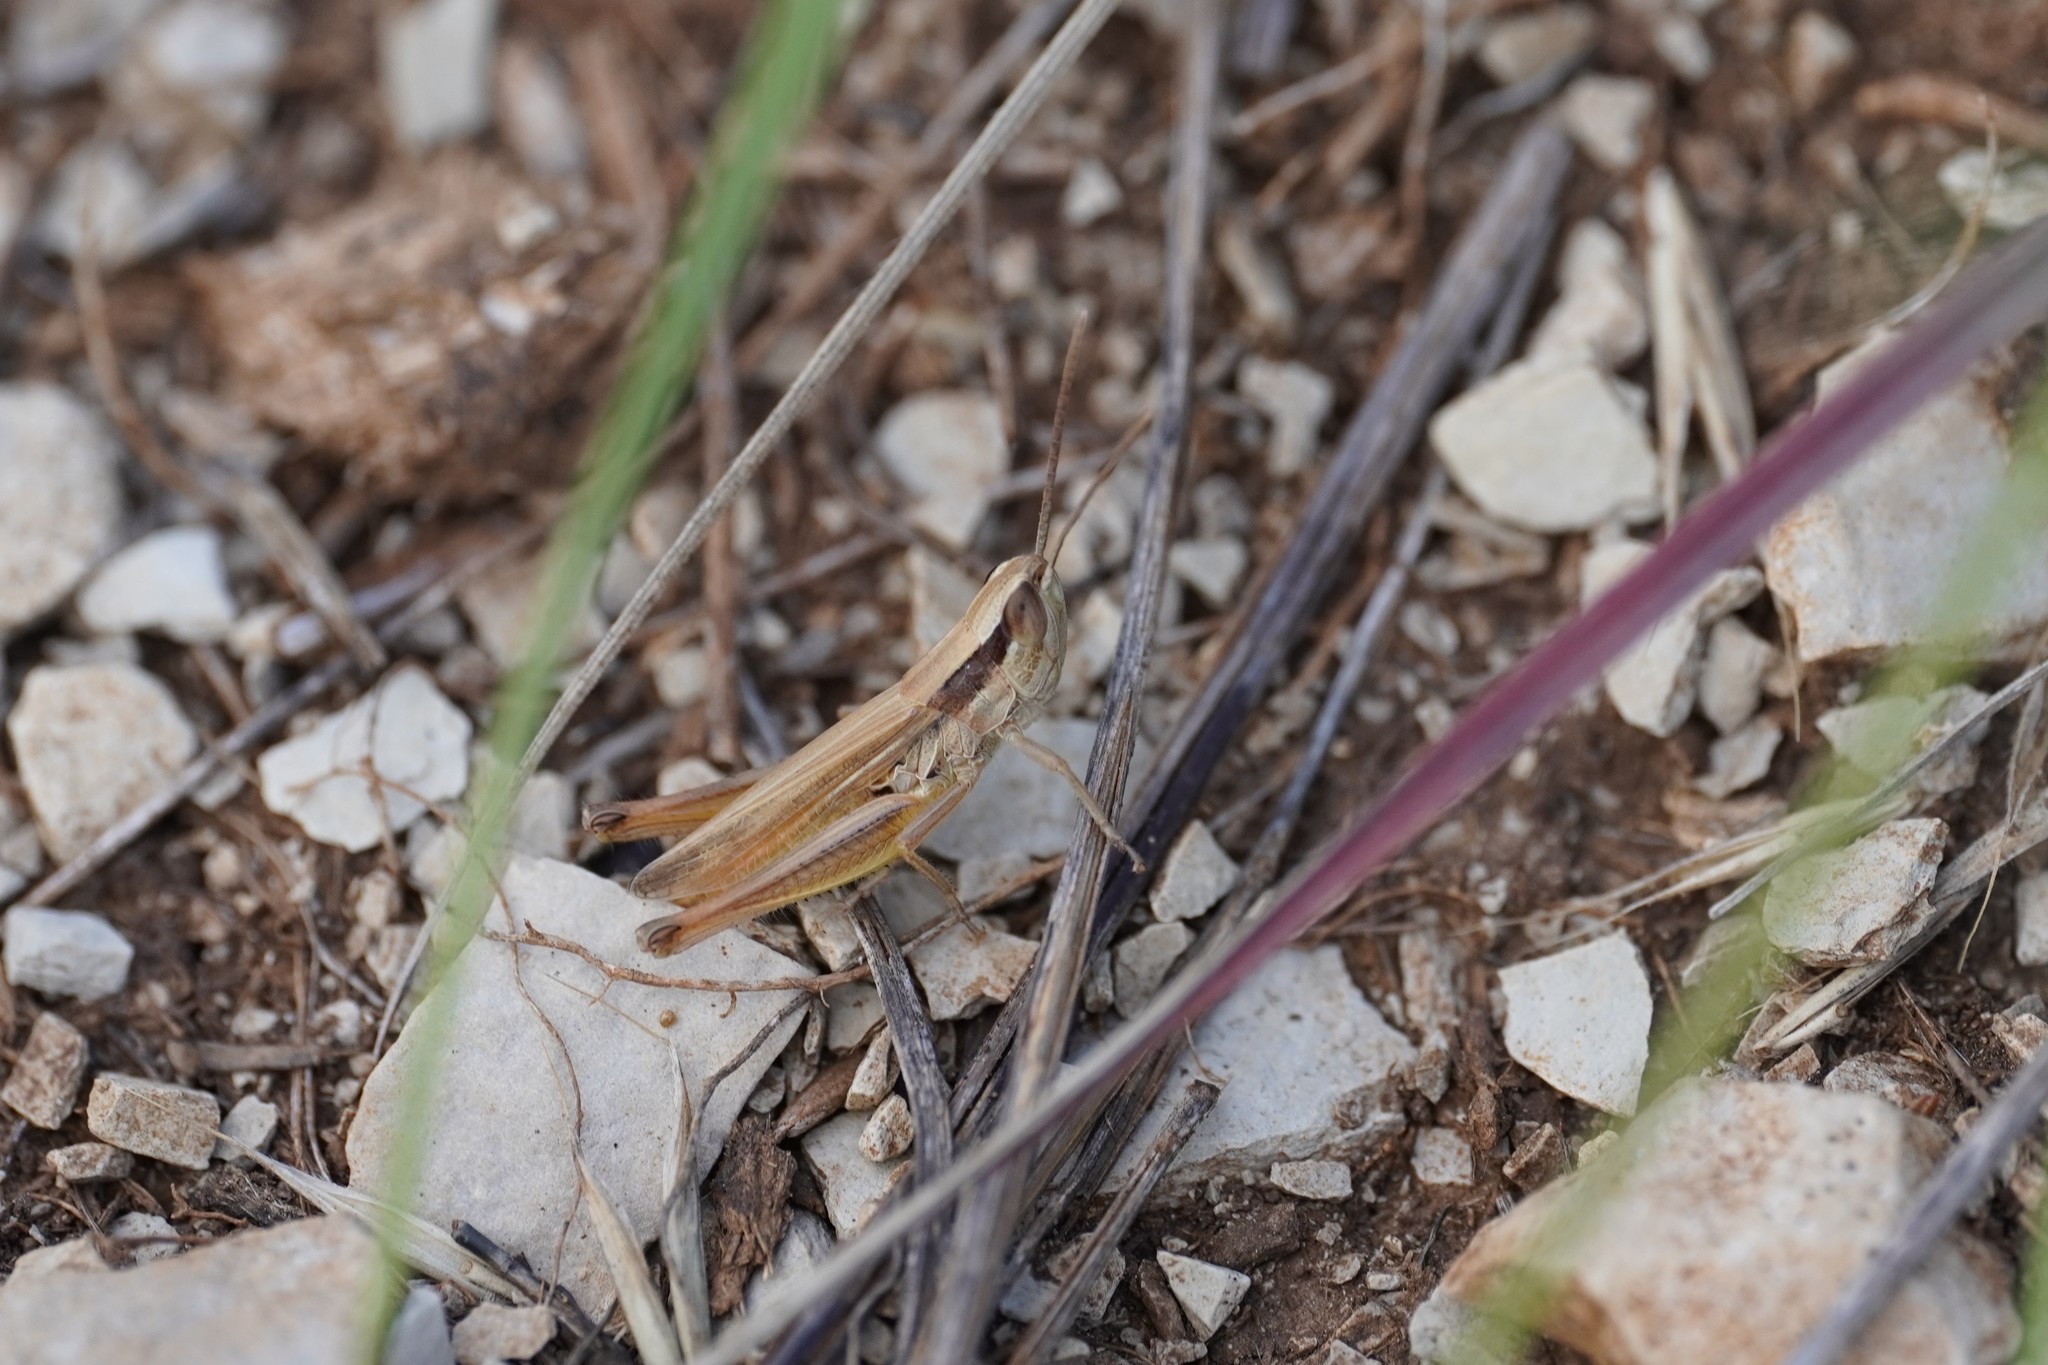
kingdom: Animalia
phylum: Arthropoda
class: Insecta
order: Orthoptera
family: Acrididae
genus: Euchorthippus
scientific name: Euchorthippus elegantulus
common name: Elegant straw grasshopper
